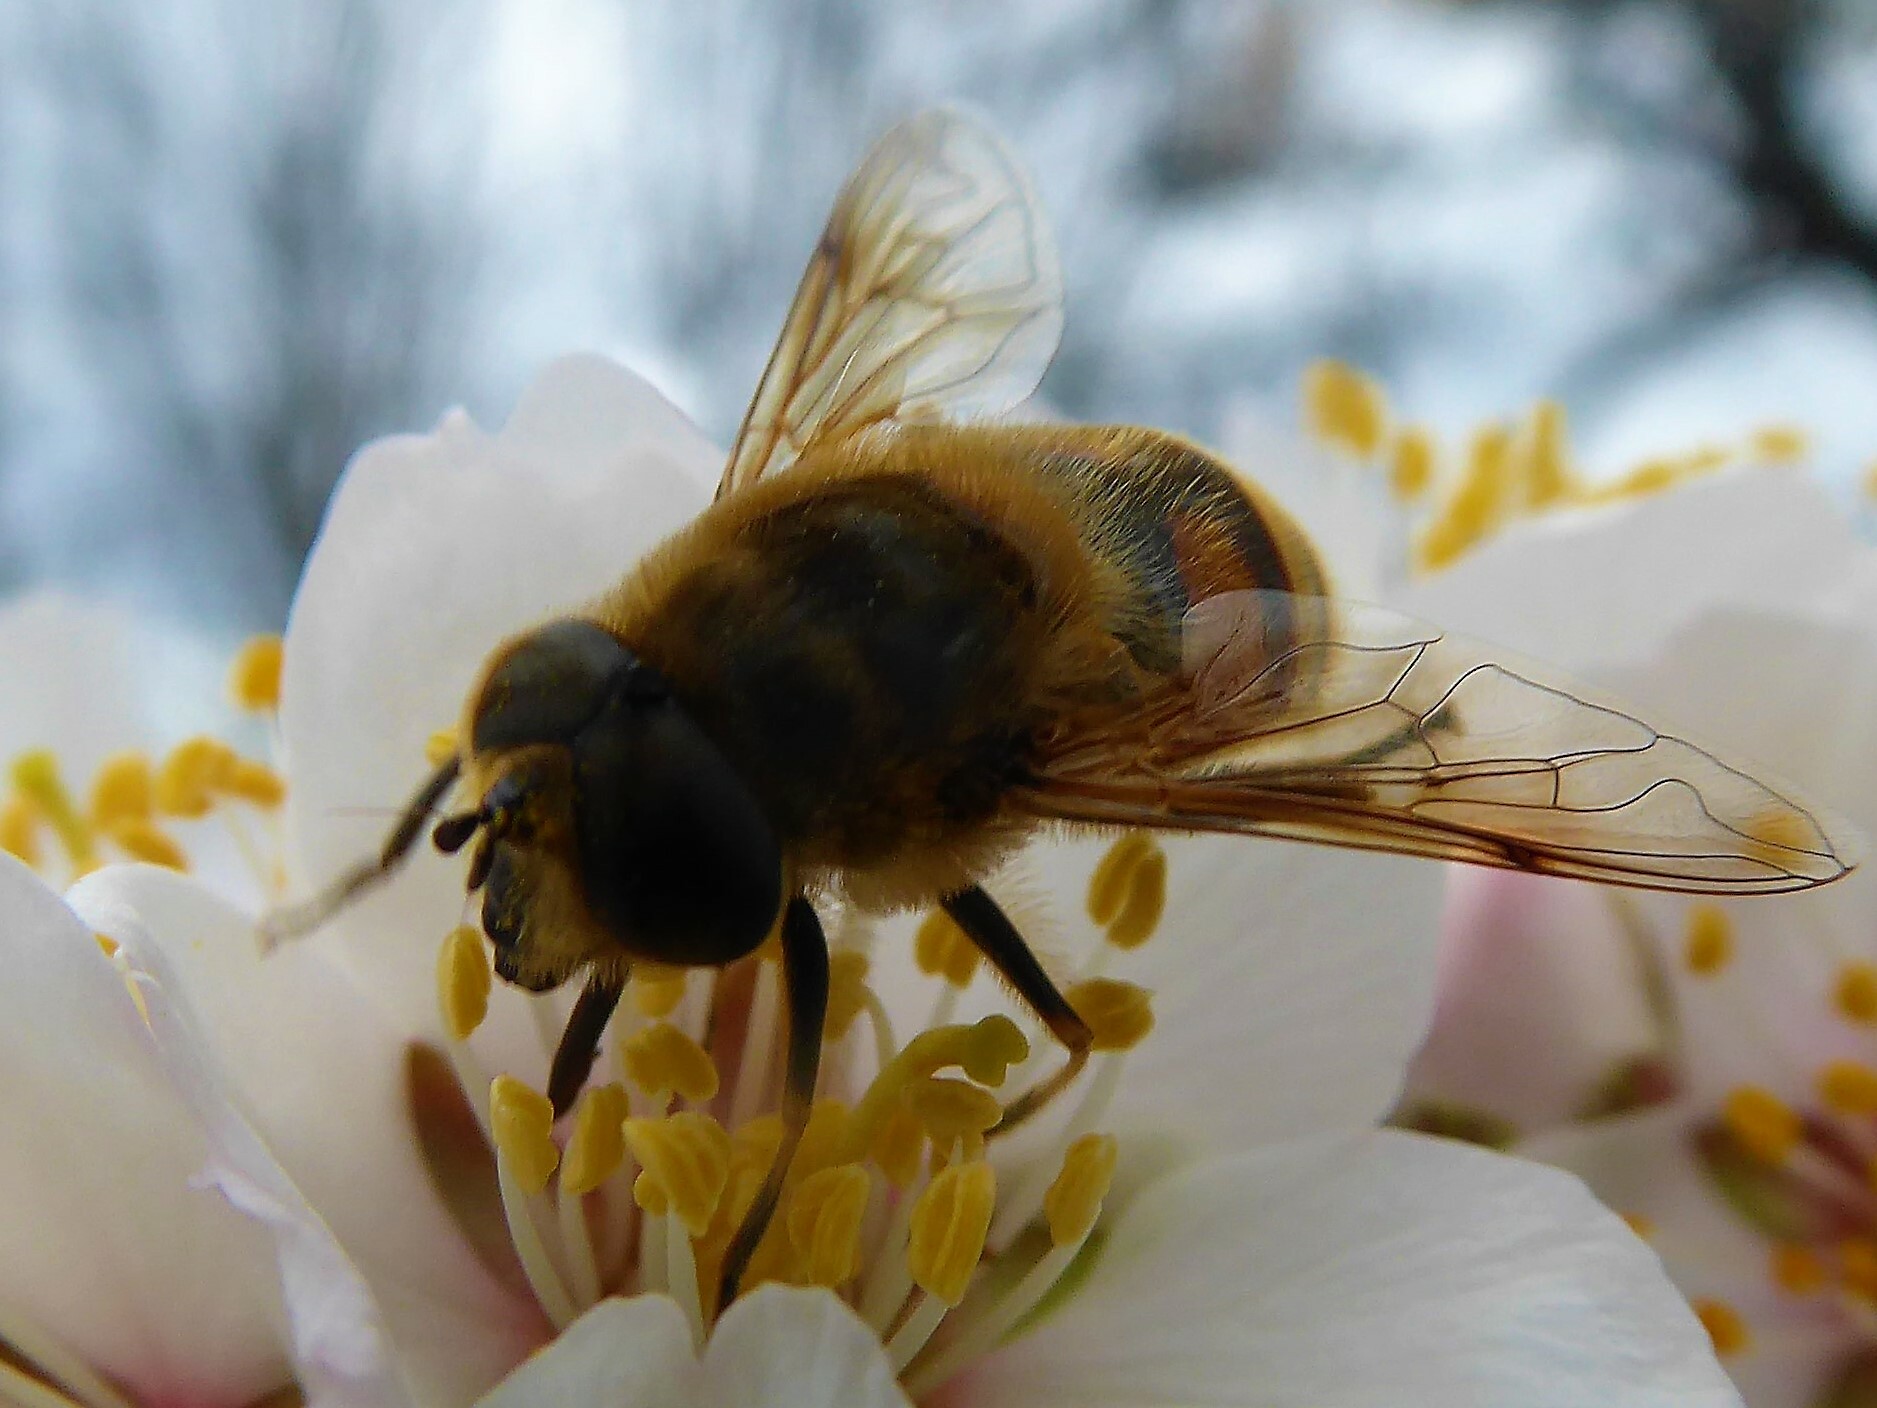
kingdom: Animalia
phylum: Arthropoda
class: Insecta
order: Diptera
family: Syrphidae
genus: Eristalis
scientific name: Eristalis tenax
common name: Drone fly
